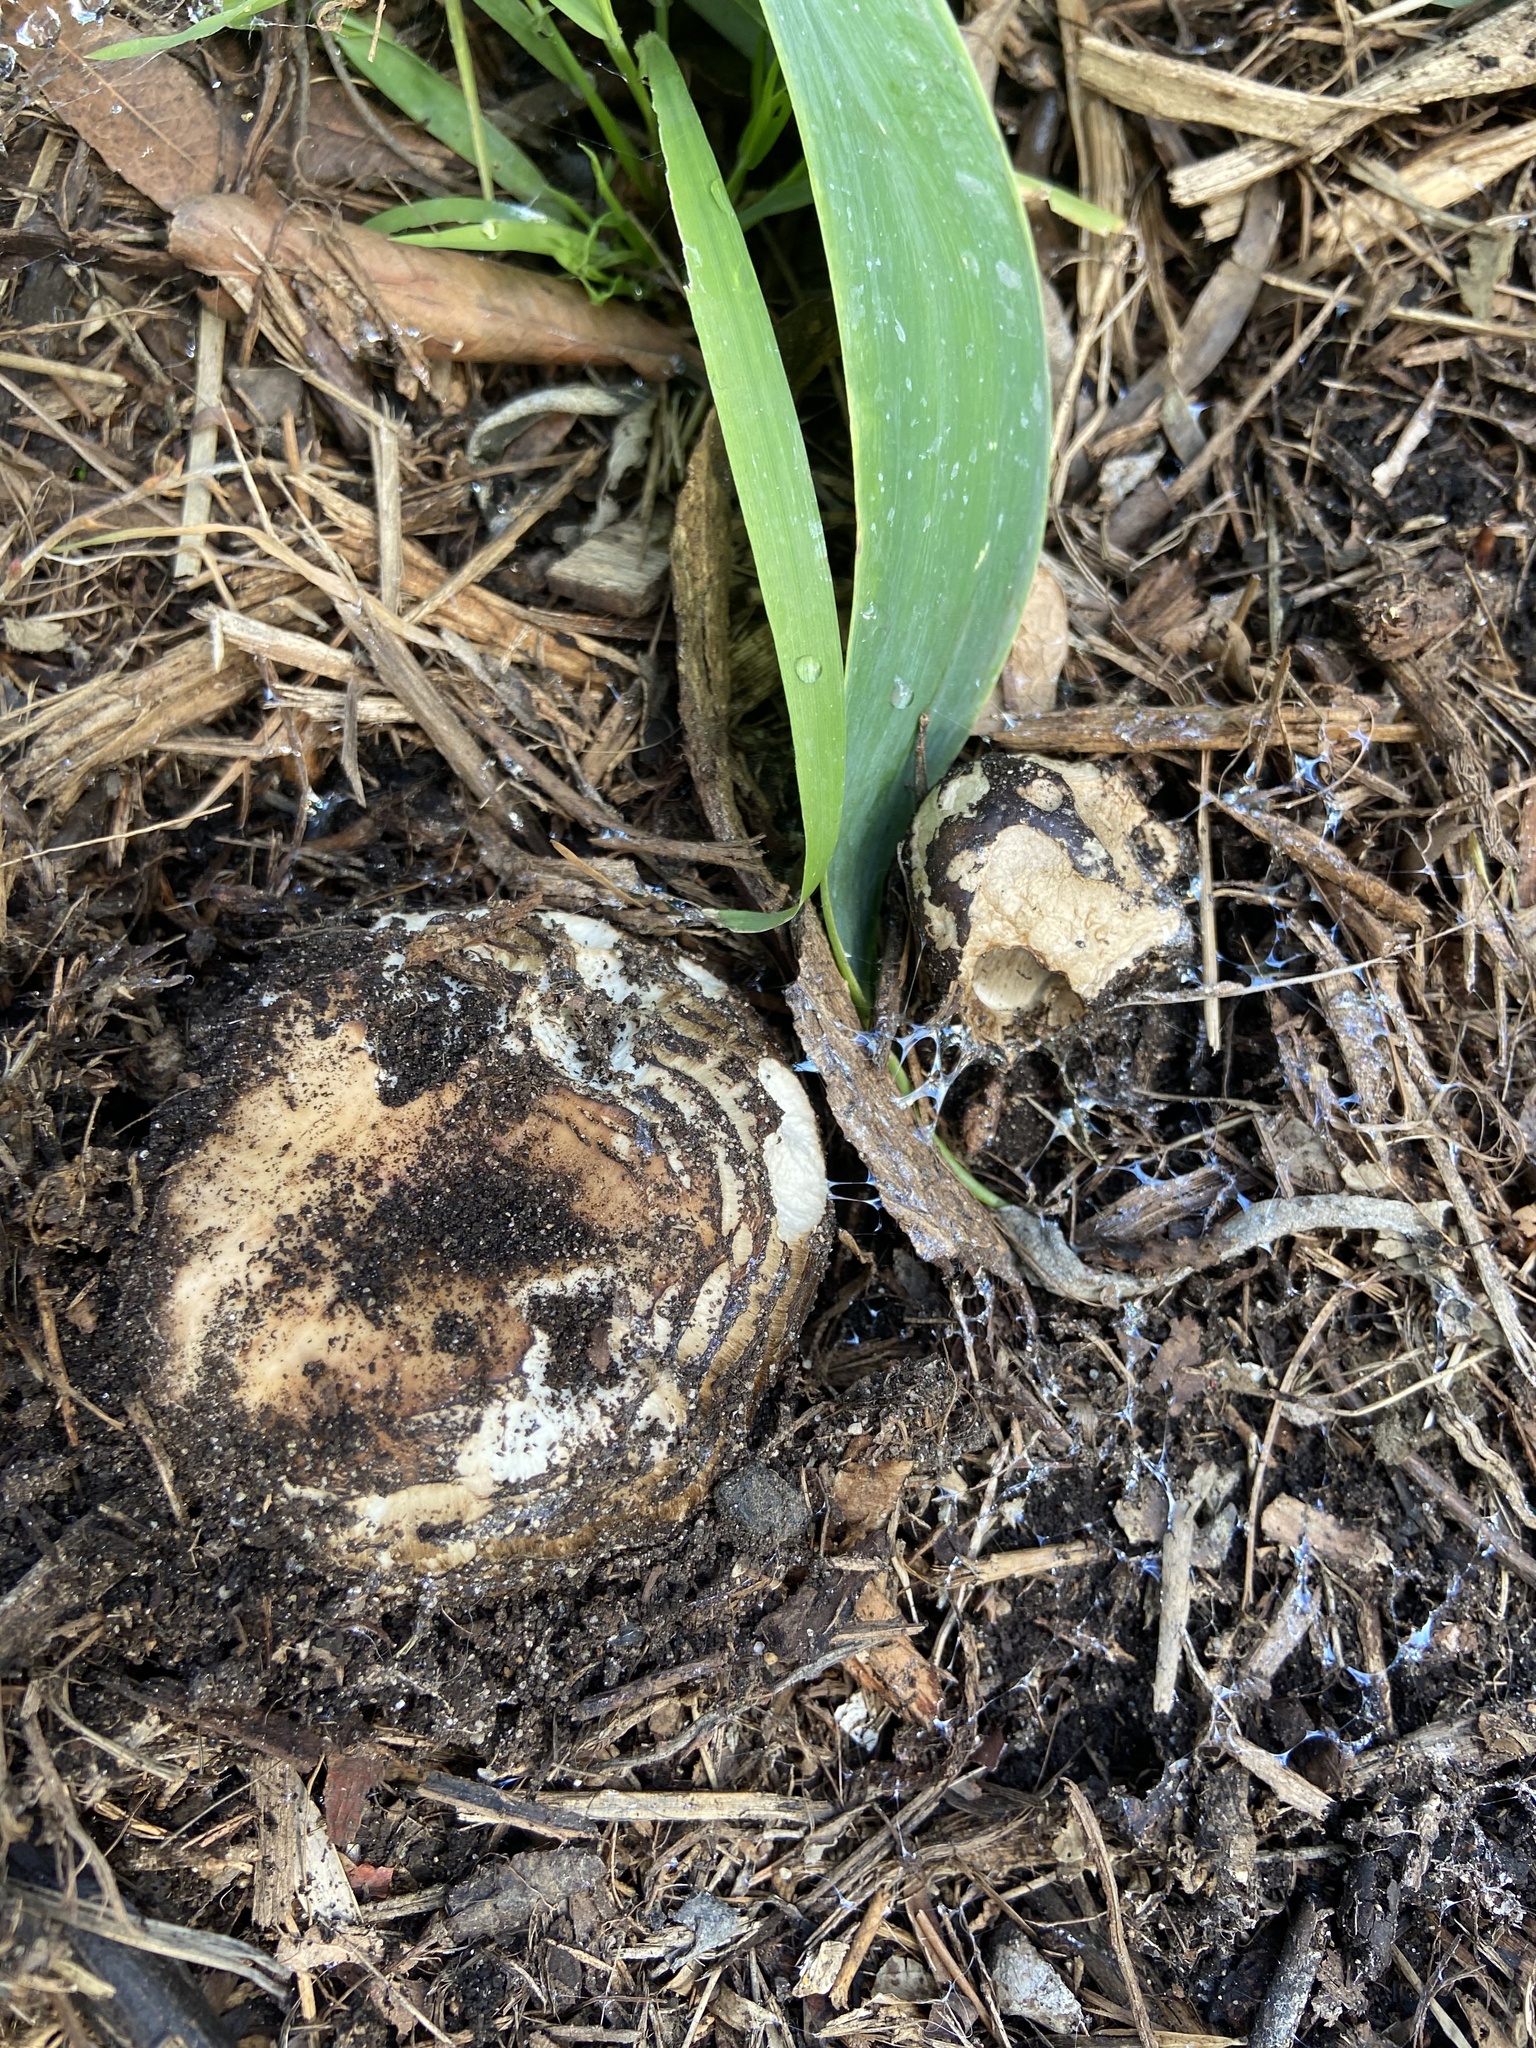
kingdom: Fungi
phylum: Basidiomycota
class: Agaricomycetes
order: Agaricales
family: Agaricaceae
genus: Chlorophyllum
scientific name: Chlorophyllum brunneum
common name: Brown parasol
